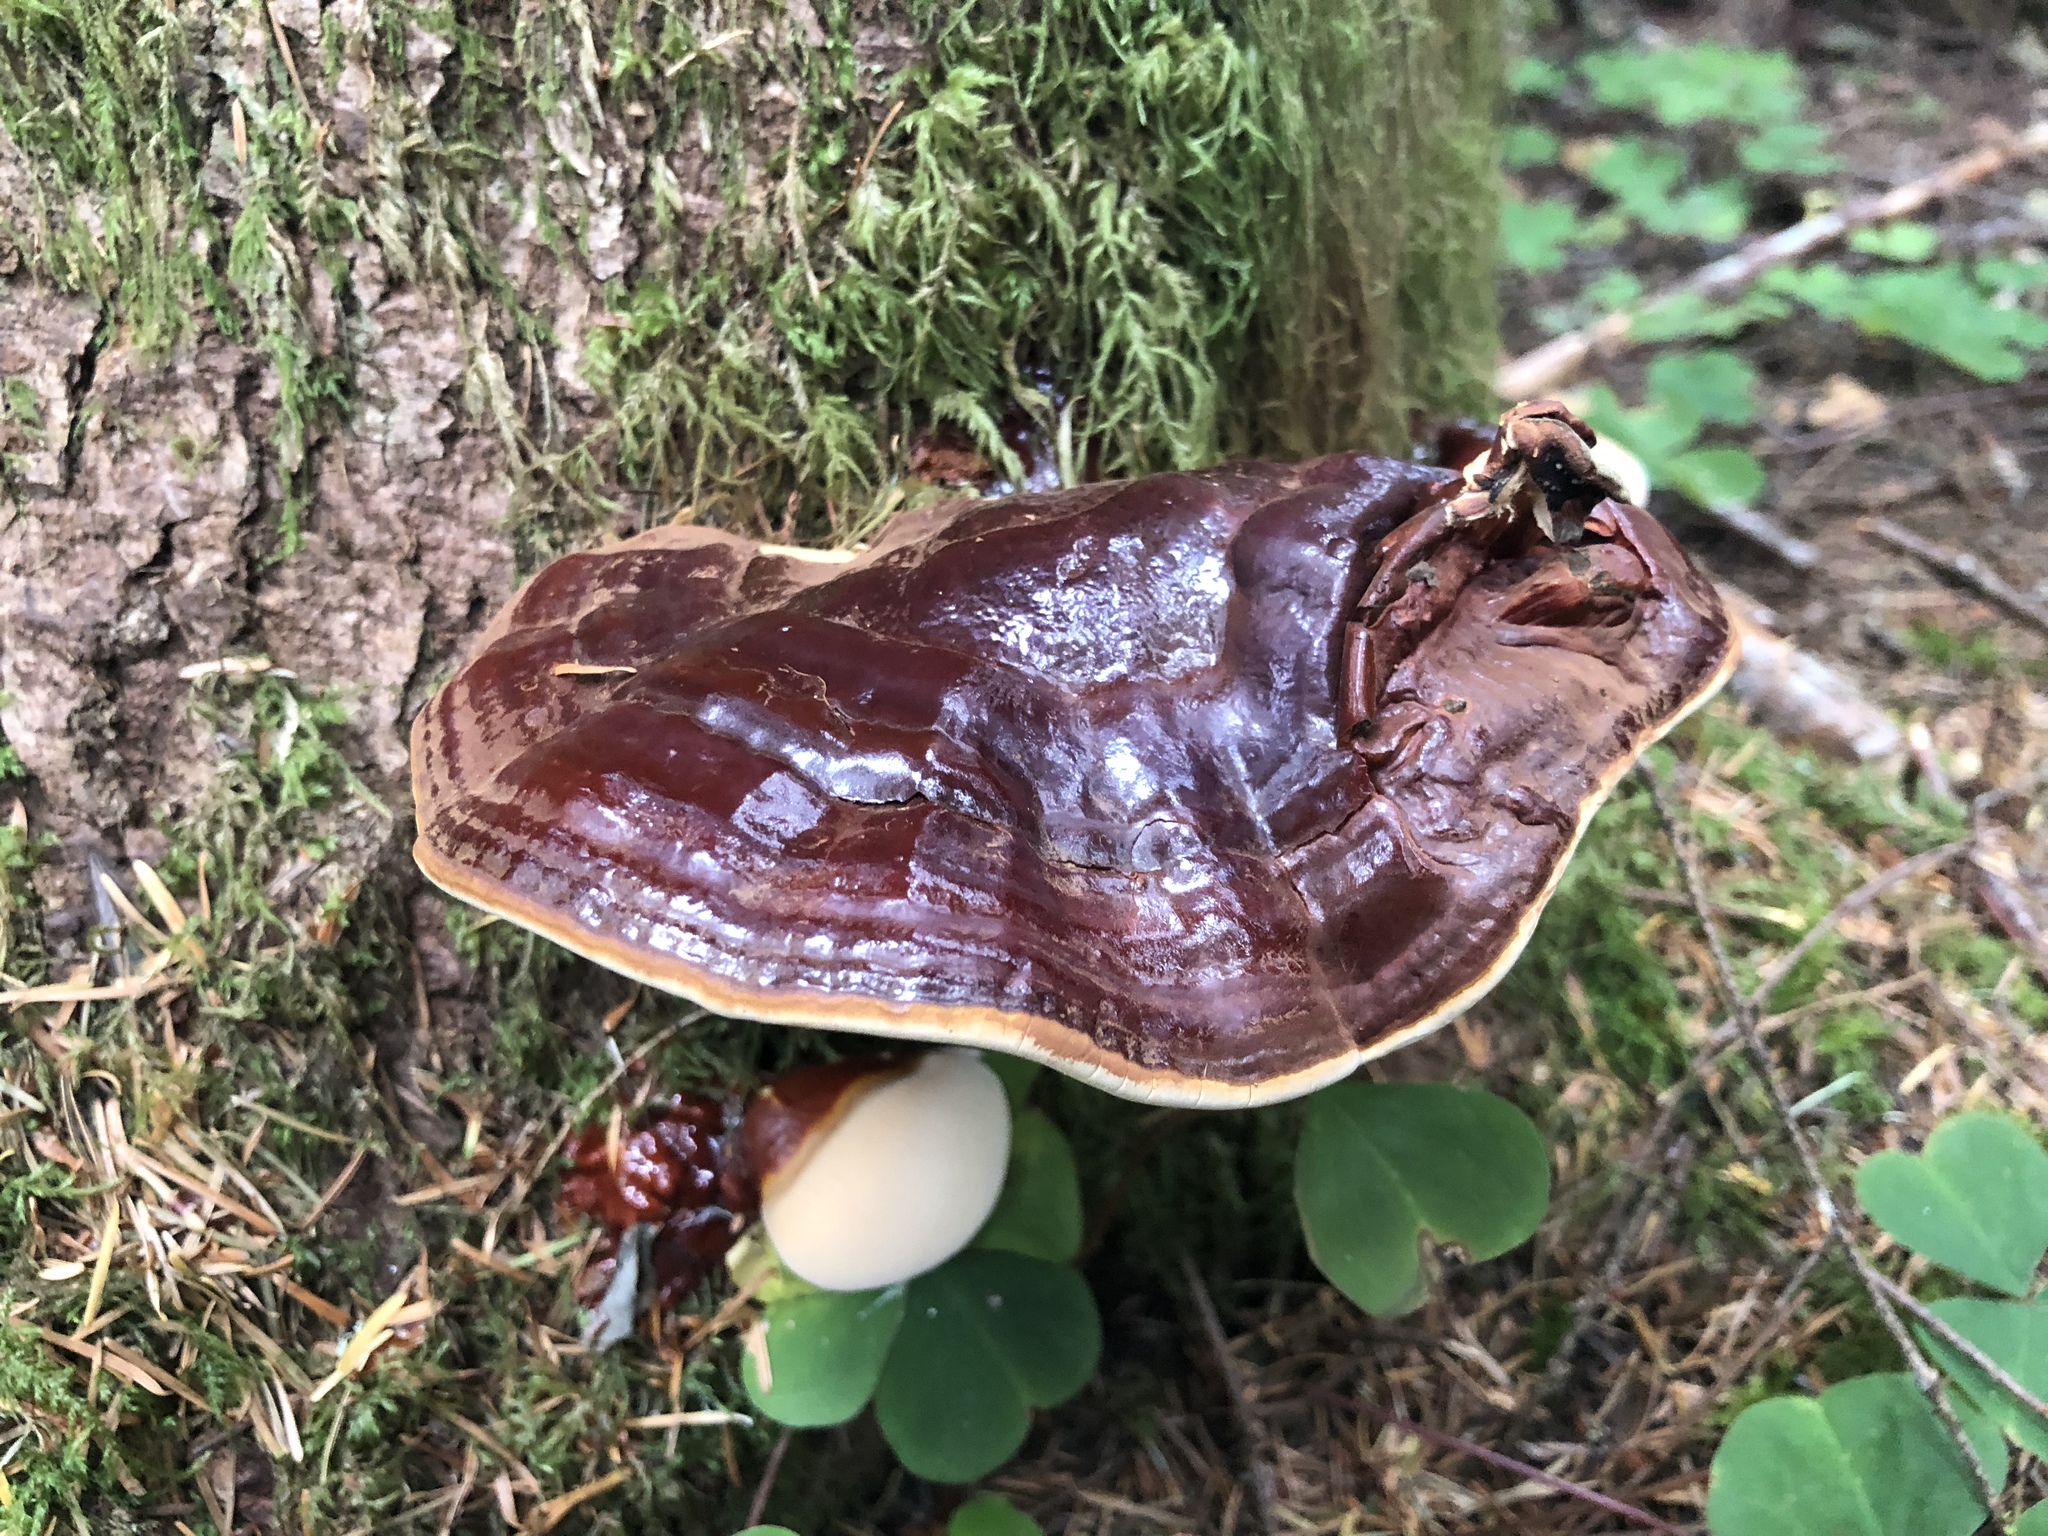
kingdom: Fungi
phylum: Basidiomycota
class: Agaricomycetes
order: Polyporales
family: Polyporaceae
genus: Ganoderma
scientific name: Ganoderma oregonense
